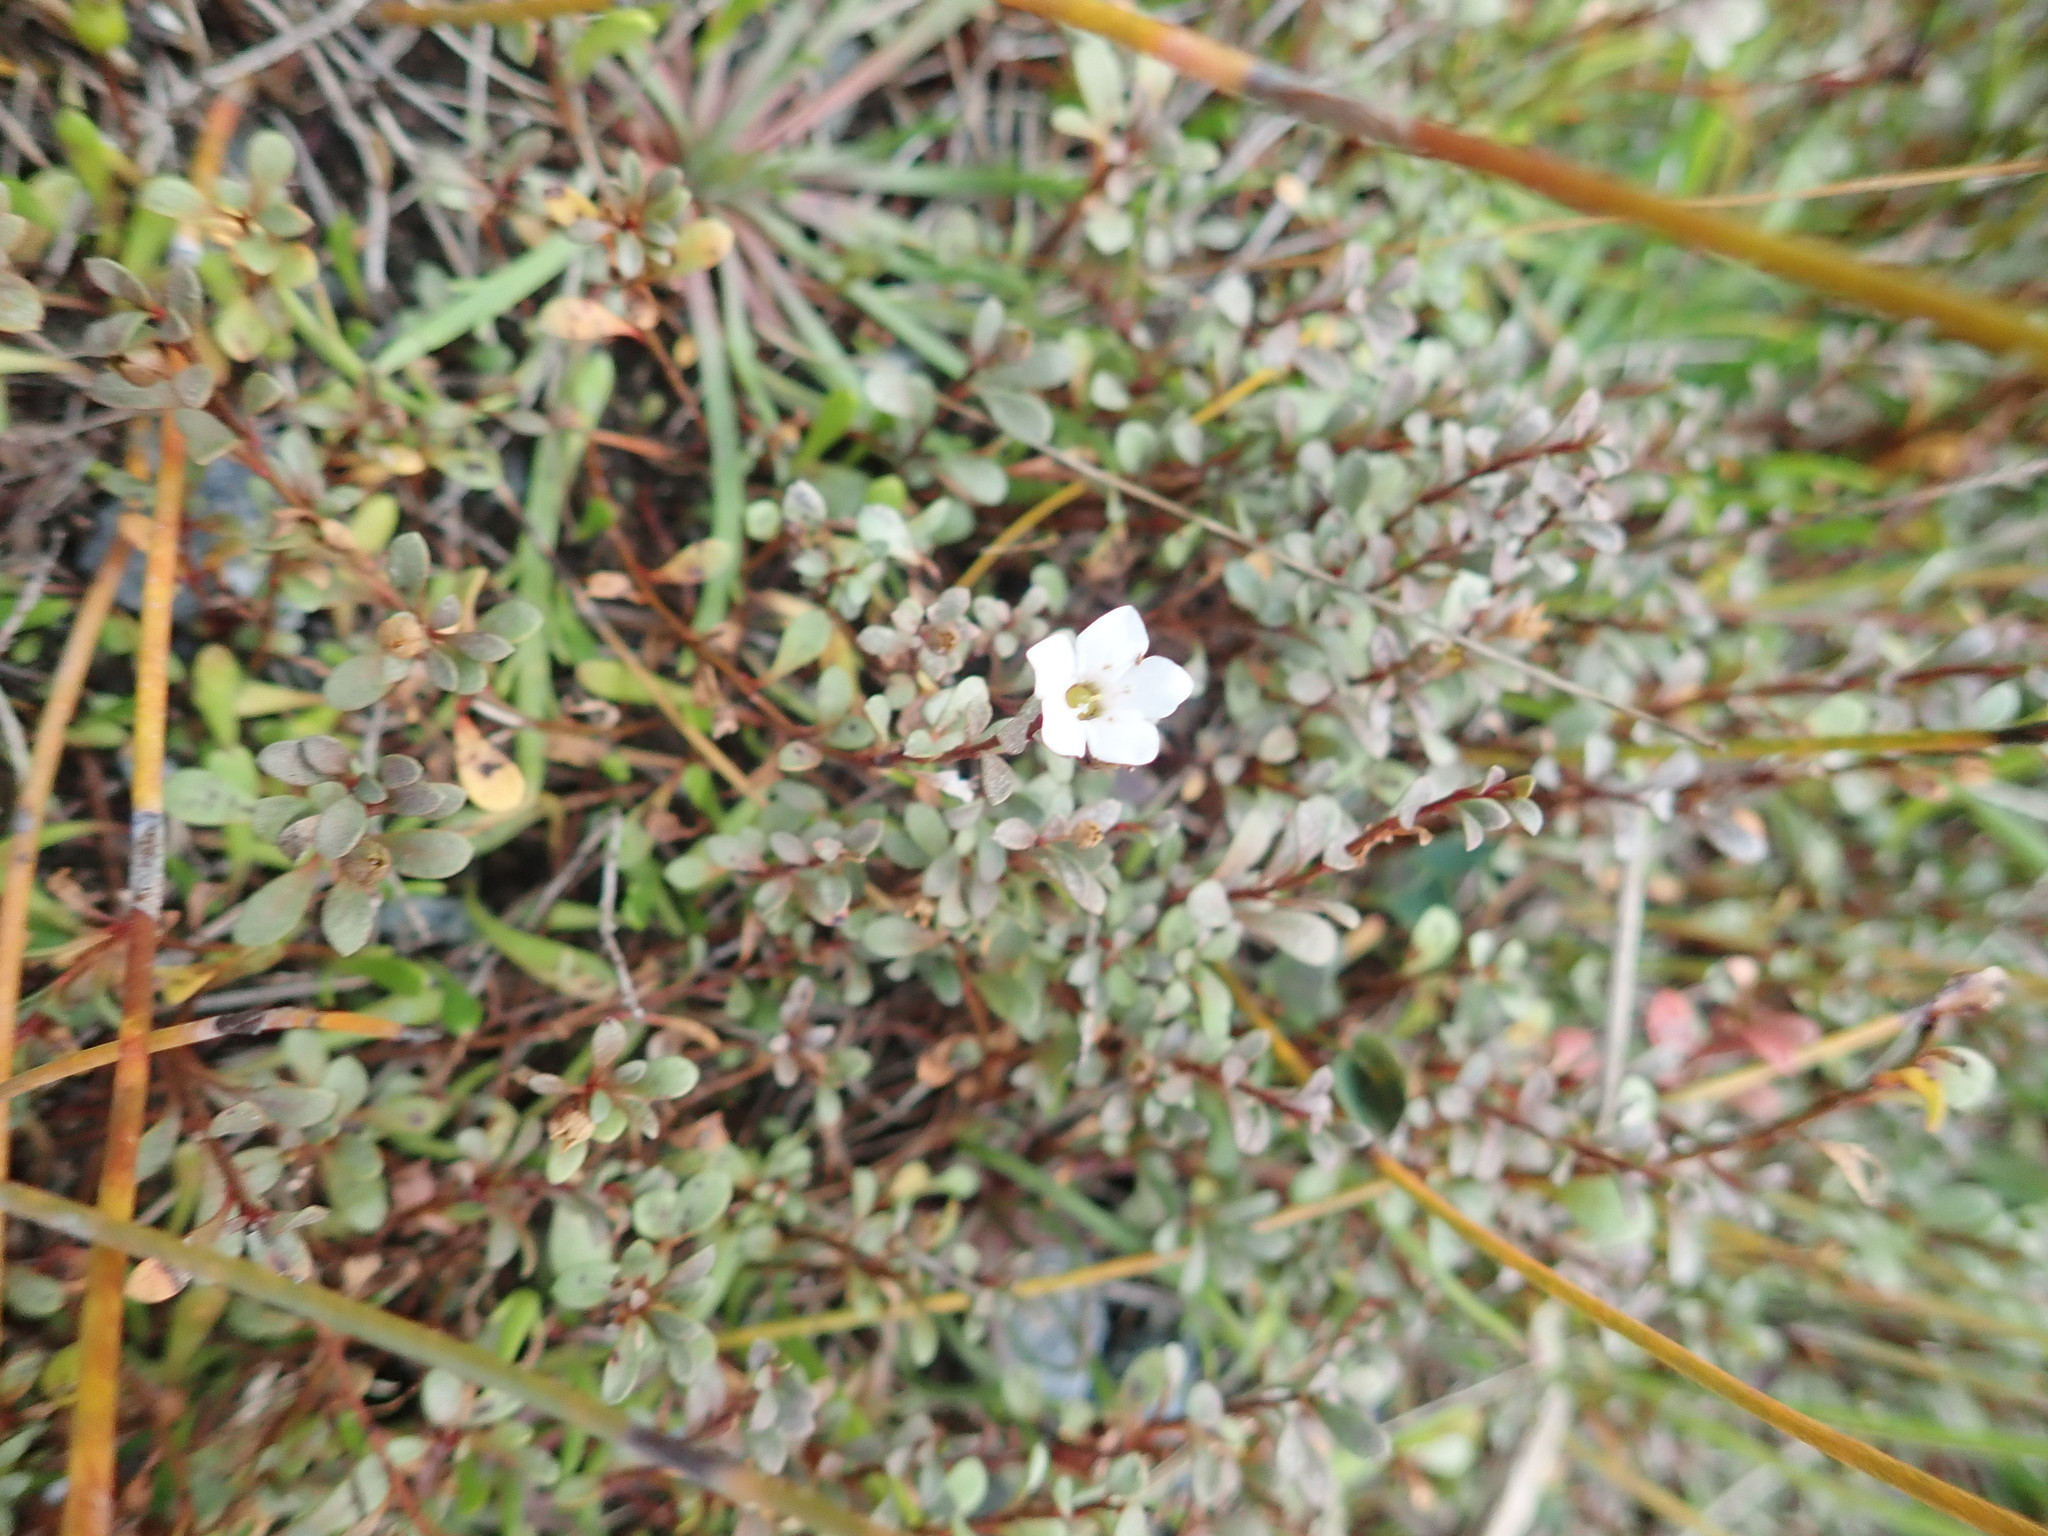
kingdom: Plantae
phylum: Tracheophyta
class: Magnoliopsida
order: Ericales
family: Primulaceae
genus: Samolus
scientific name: Samolus repens
